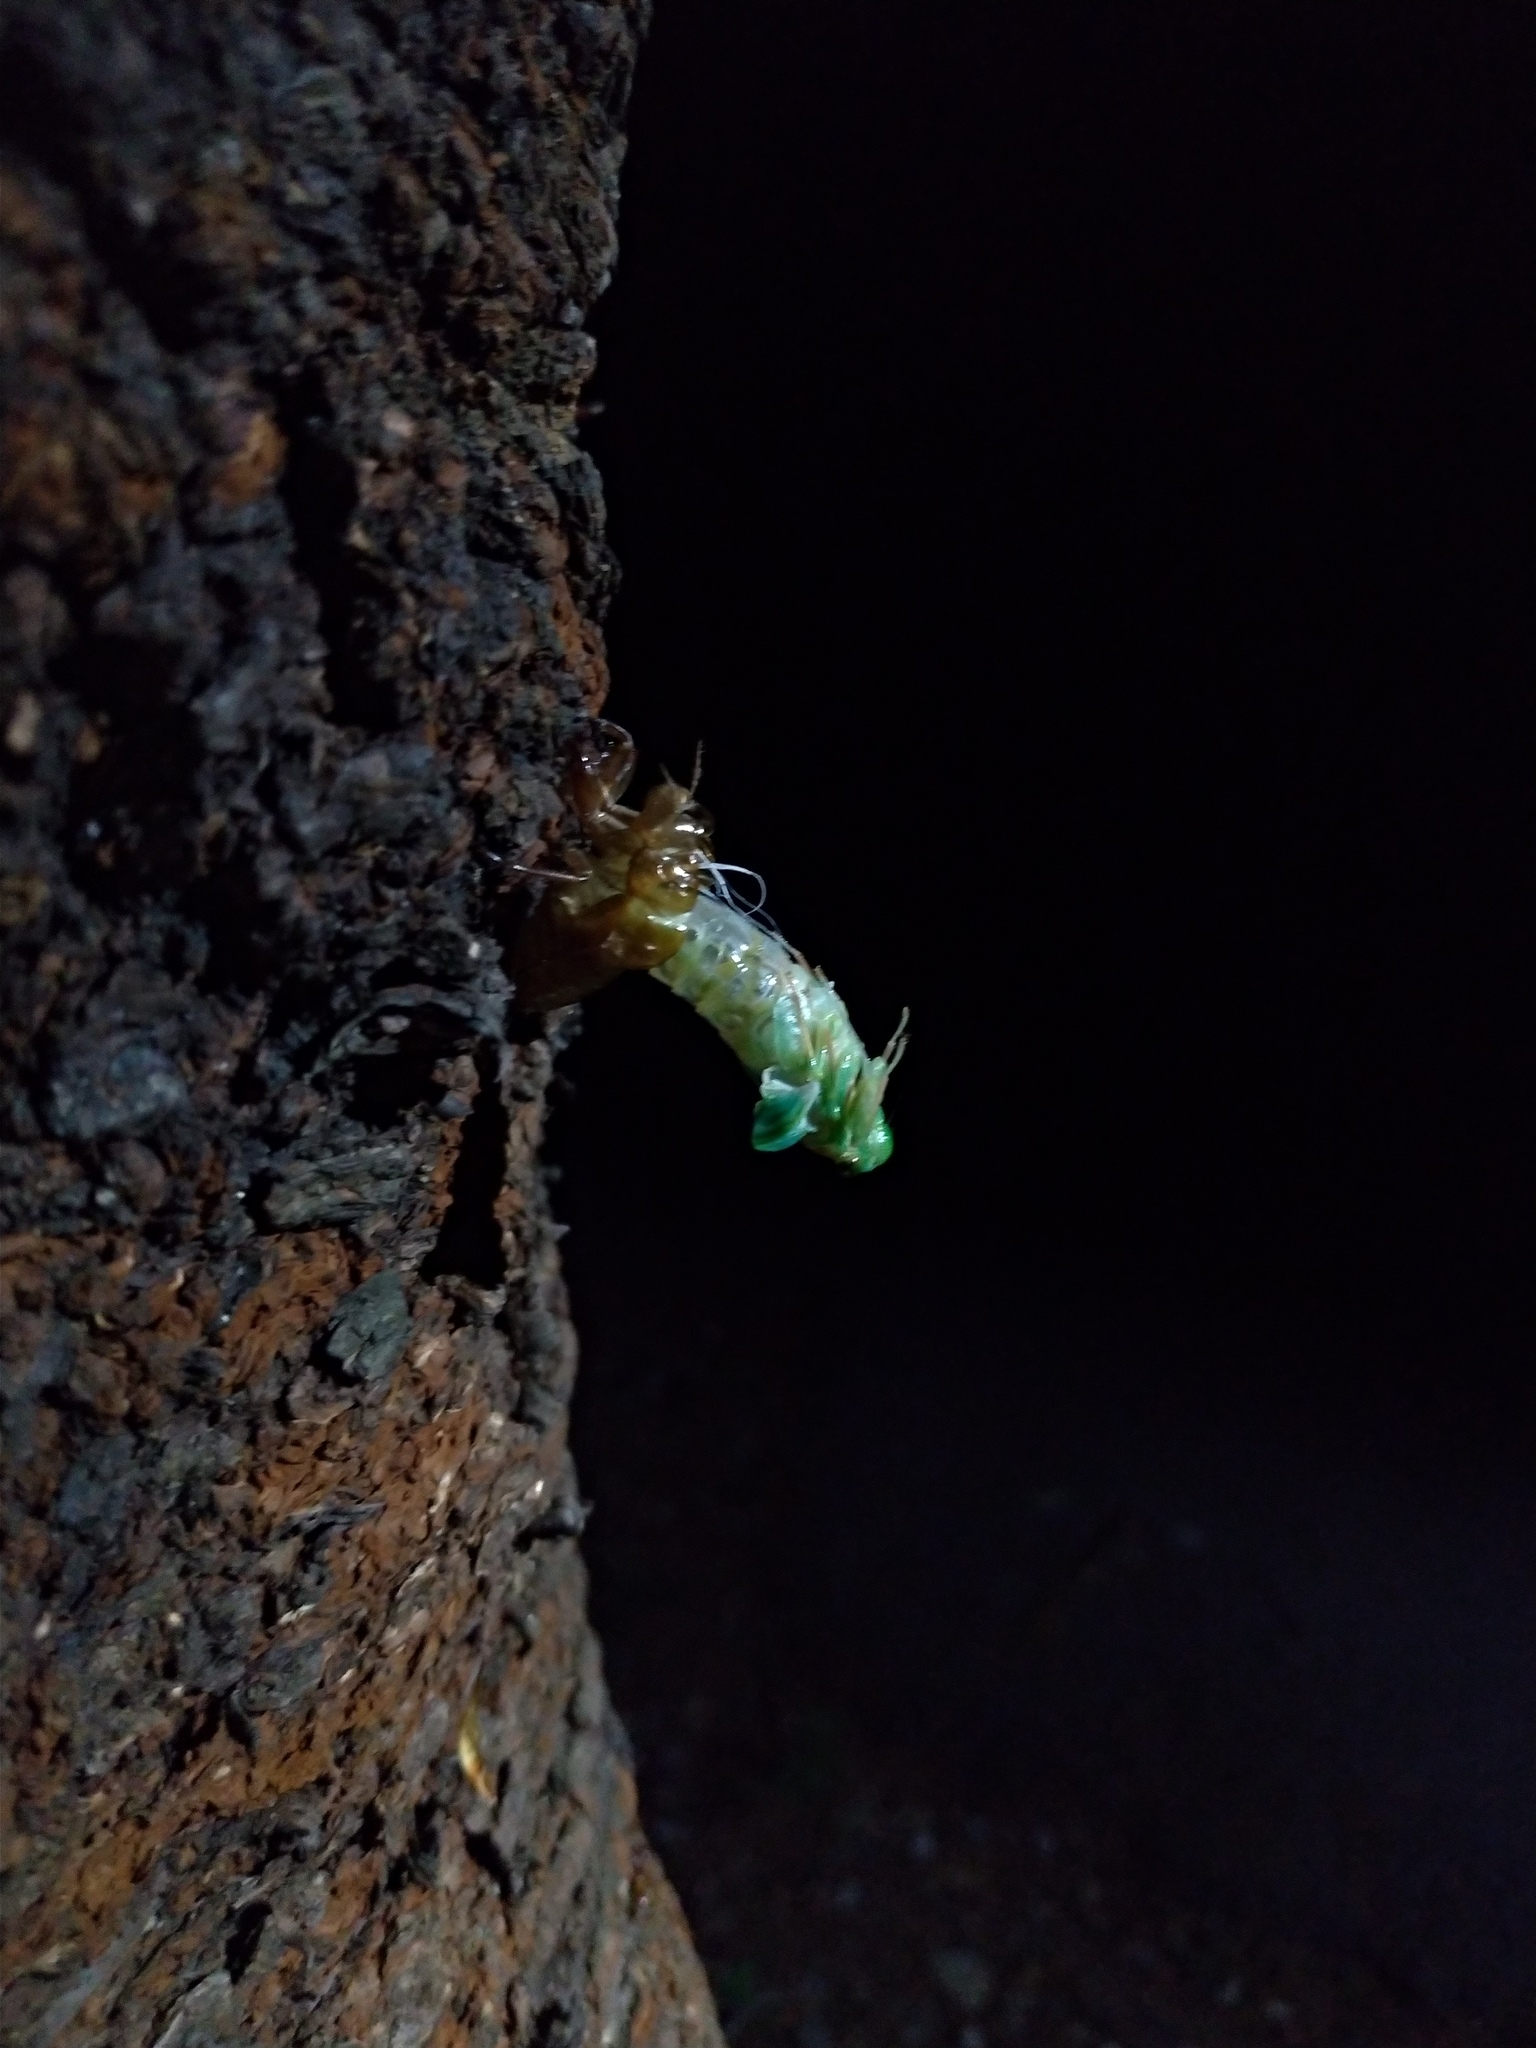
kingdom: Animalia
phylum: Arthropoda
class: Insecta
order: Hemiptera
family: Cicadidae
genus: Euterpnosia
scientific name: Euterpnosia alpina
